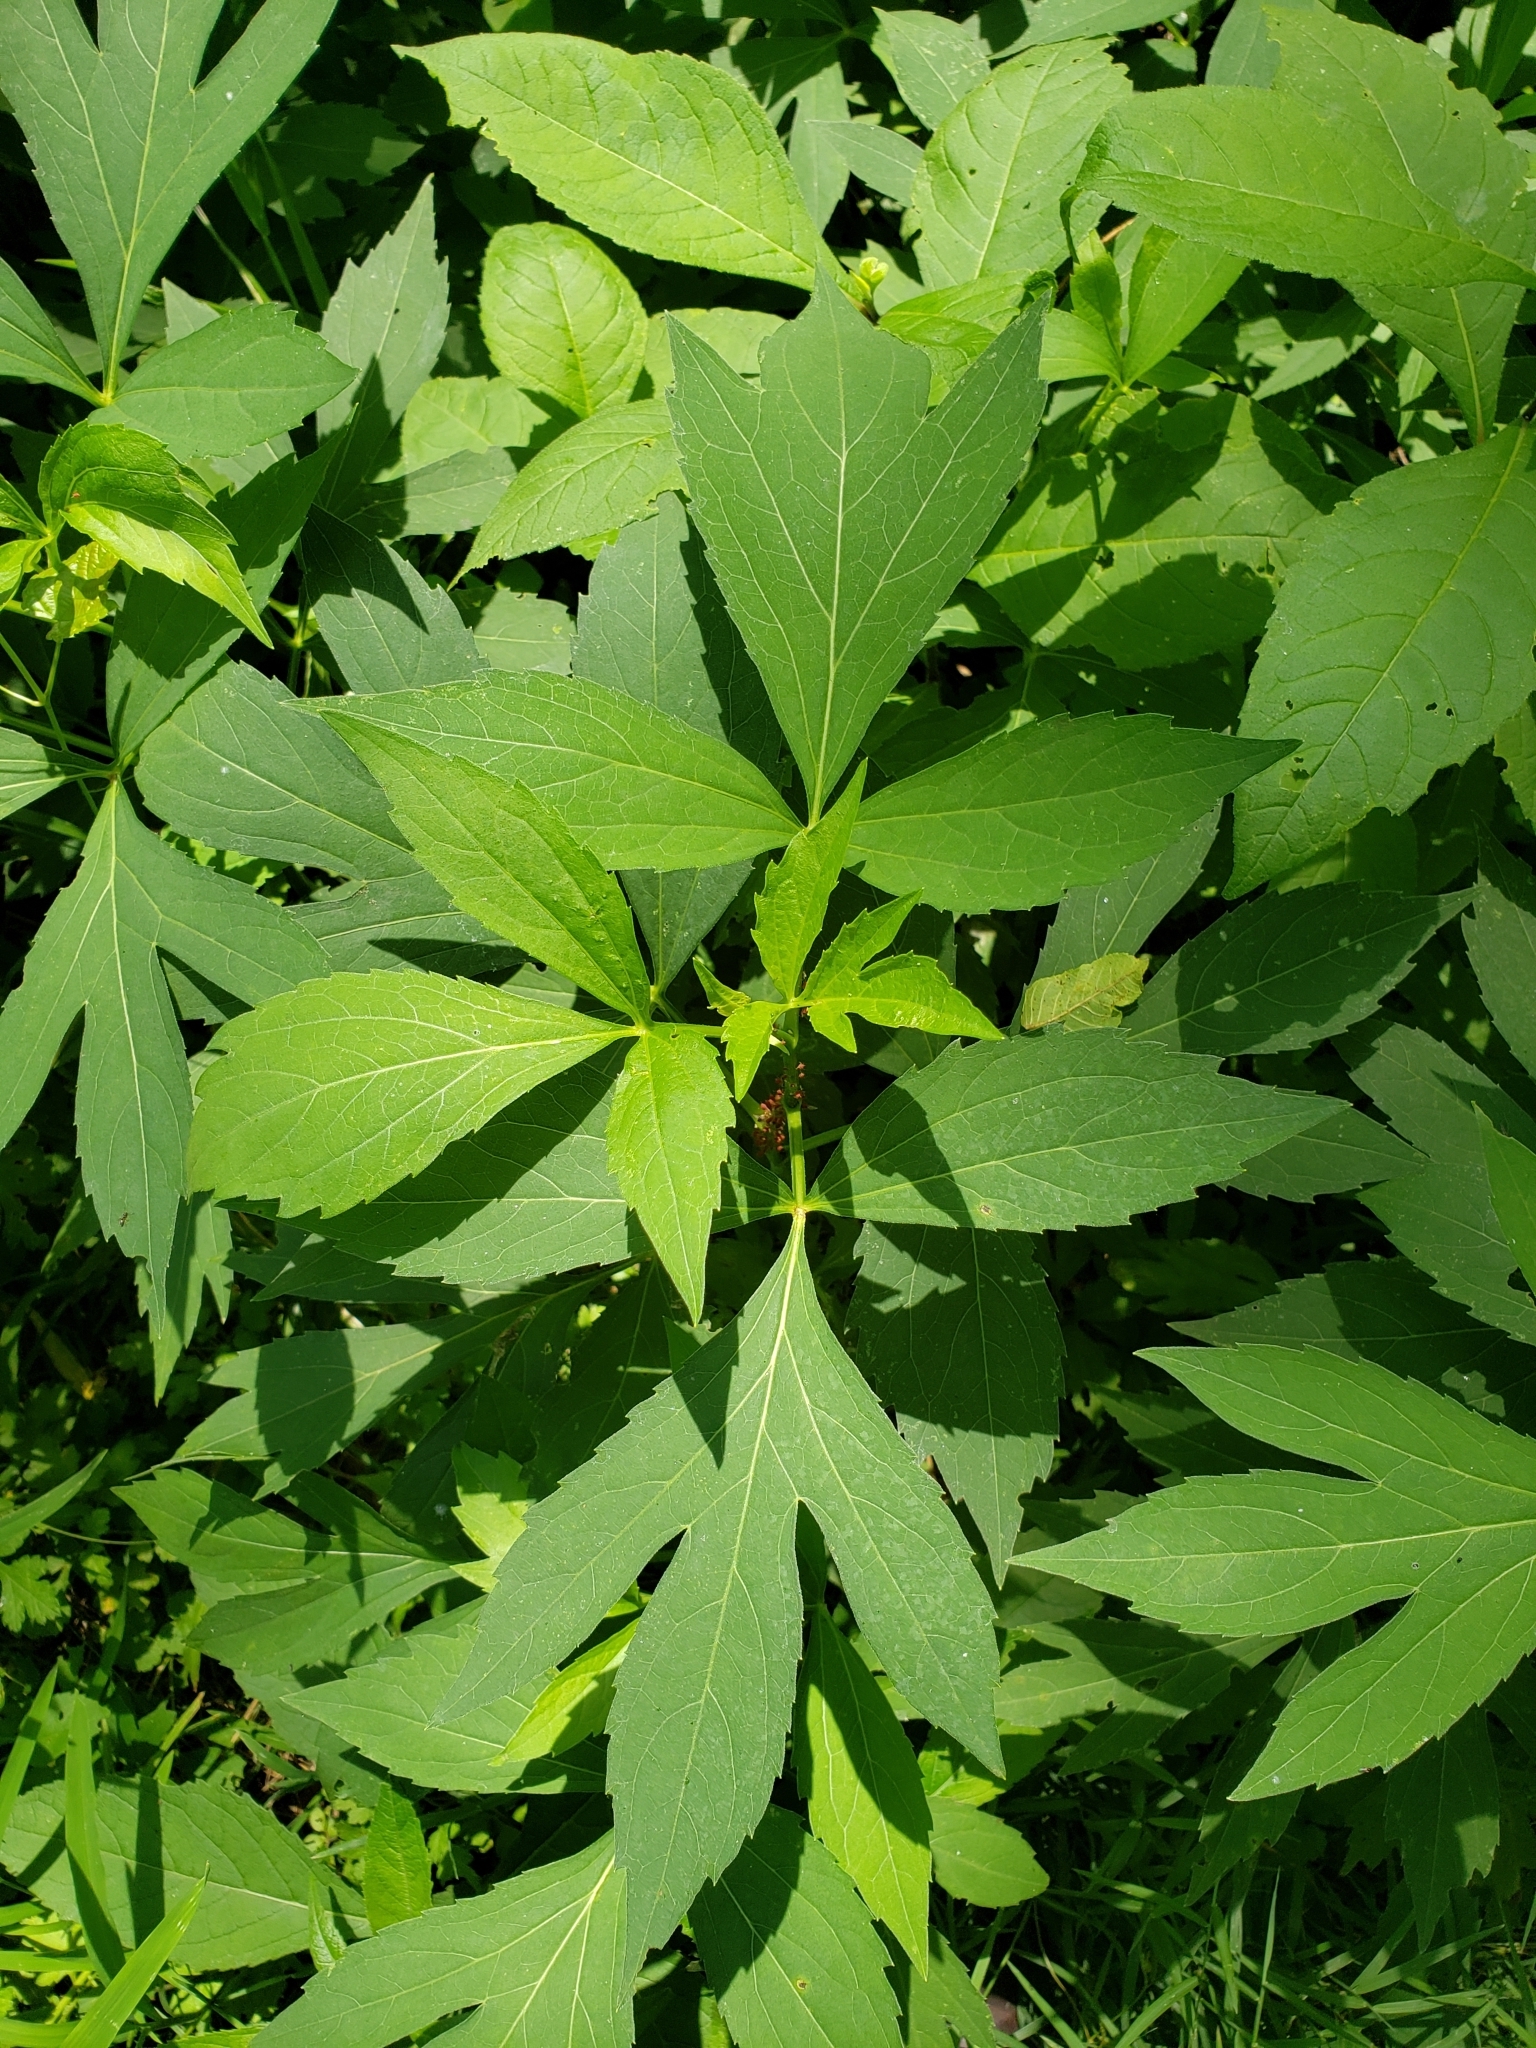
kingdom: Plantae
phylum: Tracheophyta
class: Magnoliopsida
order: Asterales
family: Asteraceae
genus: Rudbeckia
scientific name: Rudbeckia laciniata
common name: Coneflower
